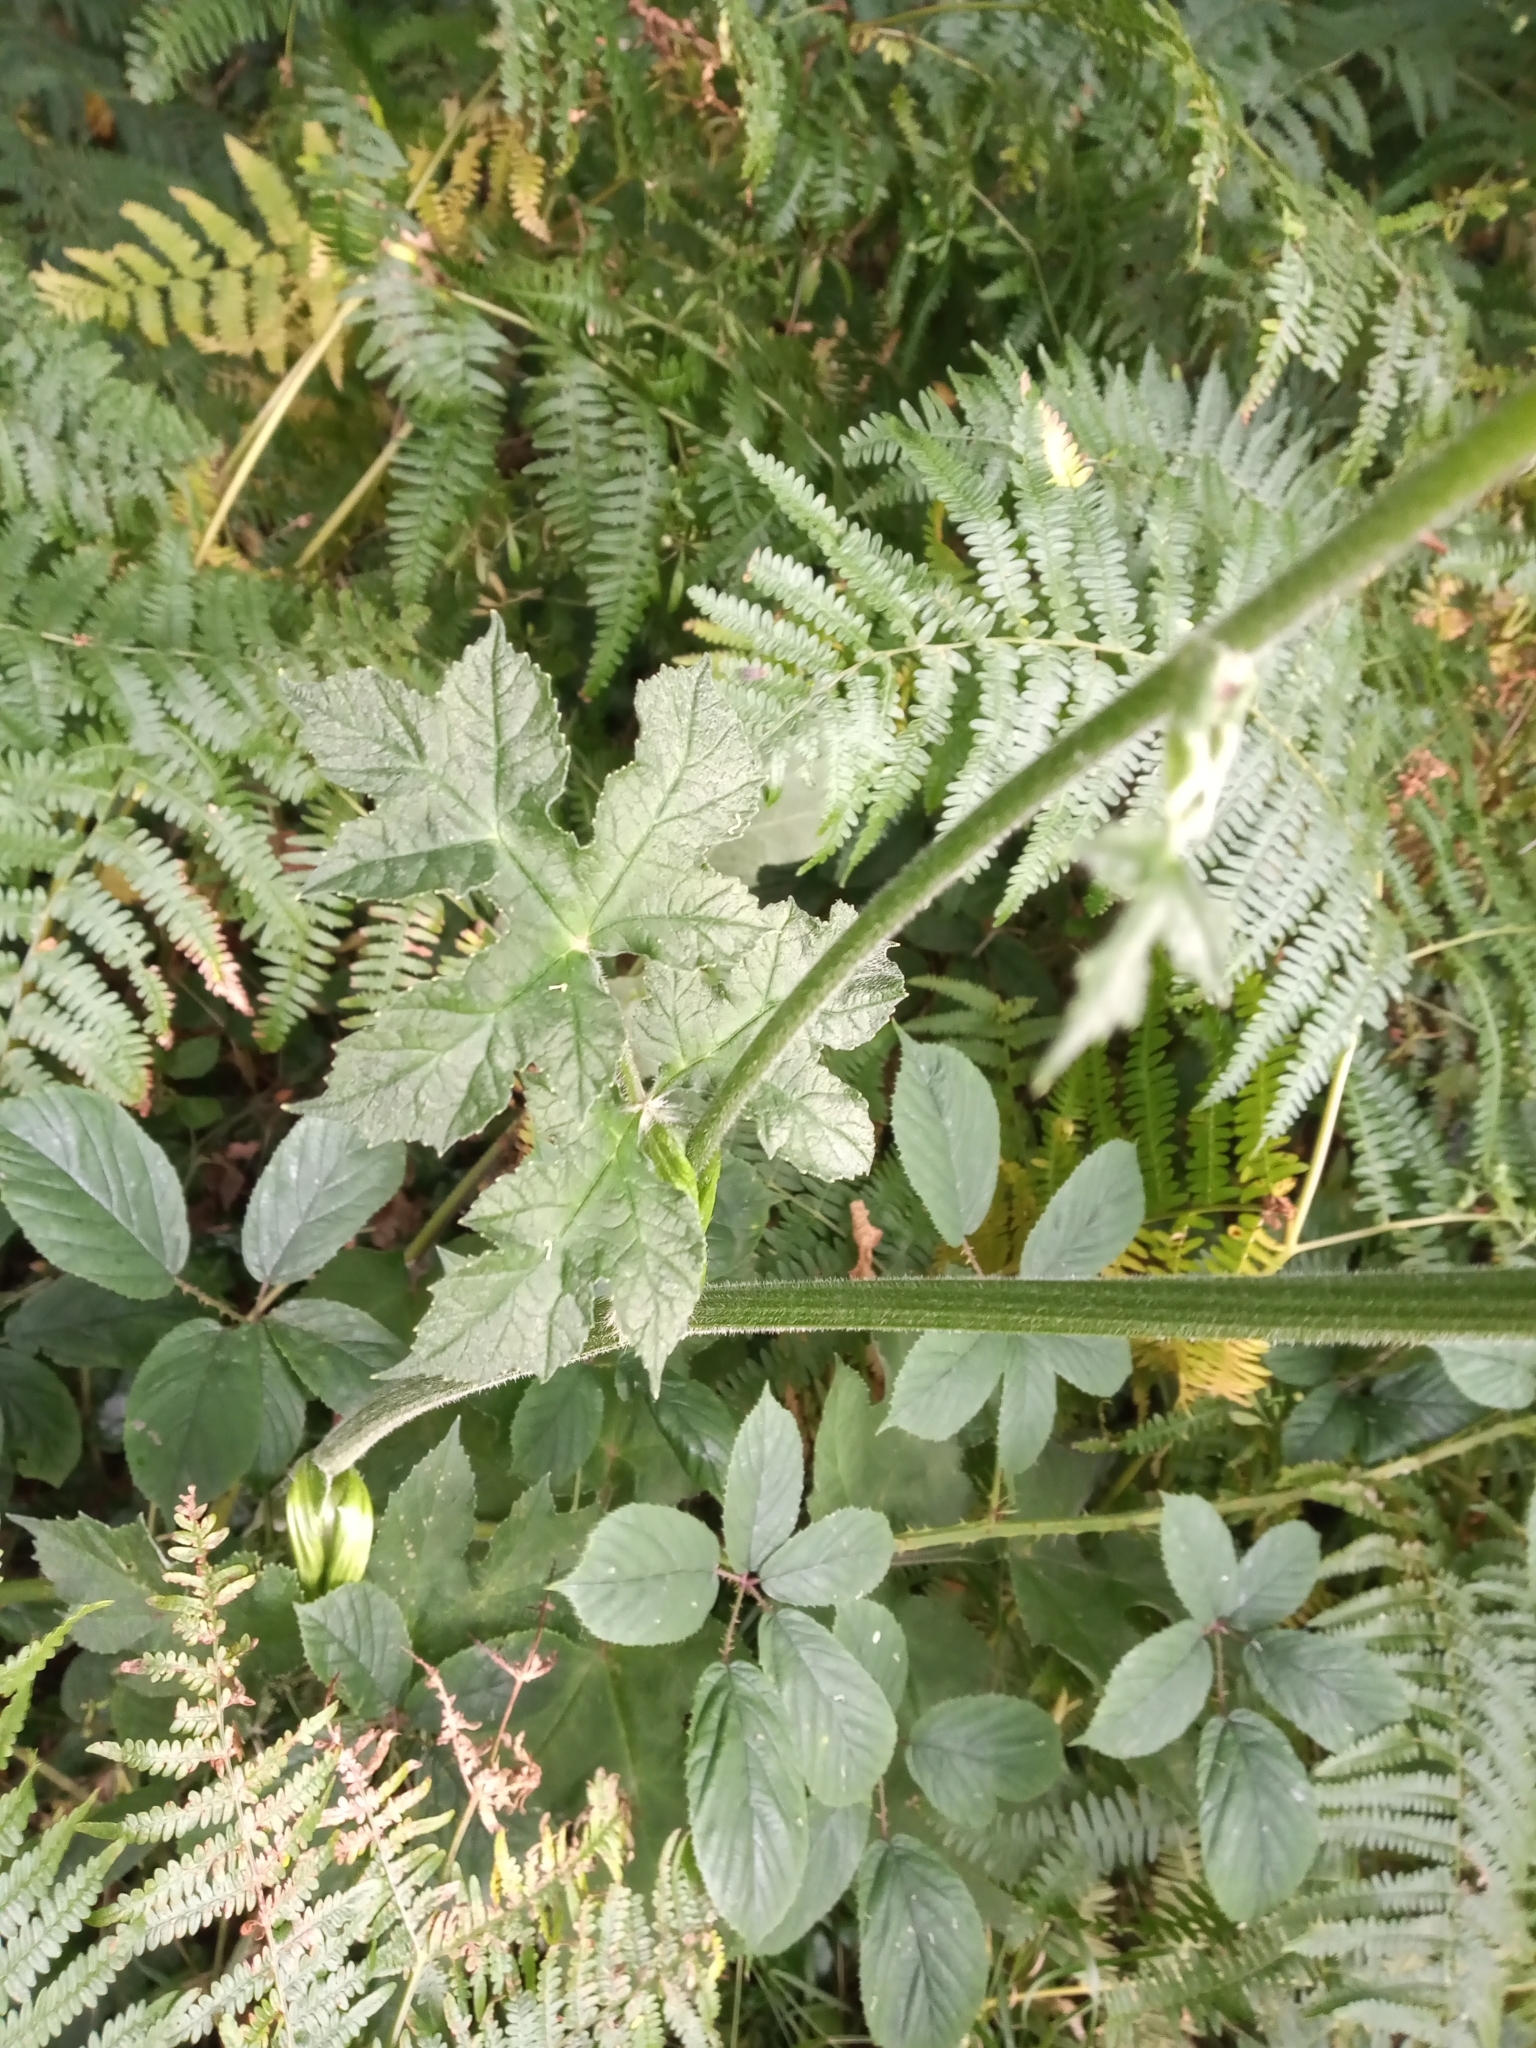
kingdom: Plantae
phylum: Tracheophyta
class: Magnoliopsida
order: Apiales
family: Apiaceae
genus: Heracleum
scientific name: Heracleum sphondylium
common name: Hogweed
